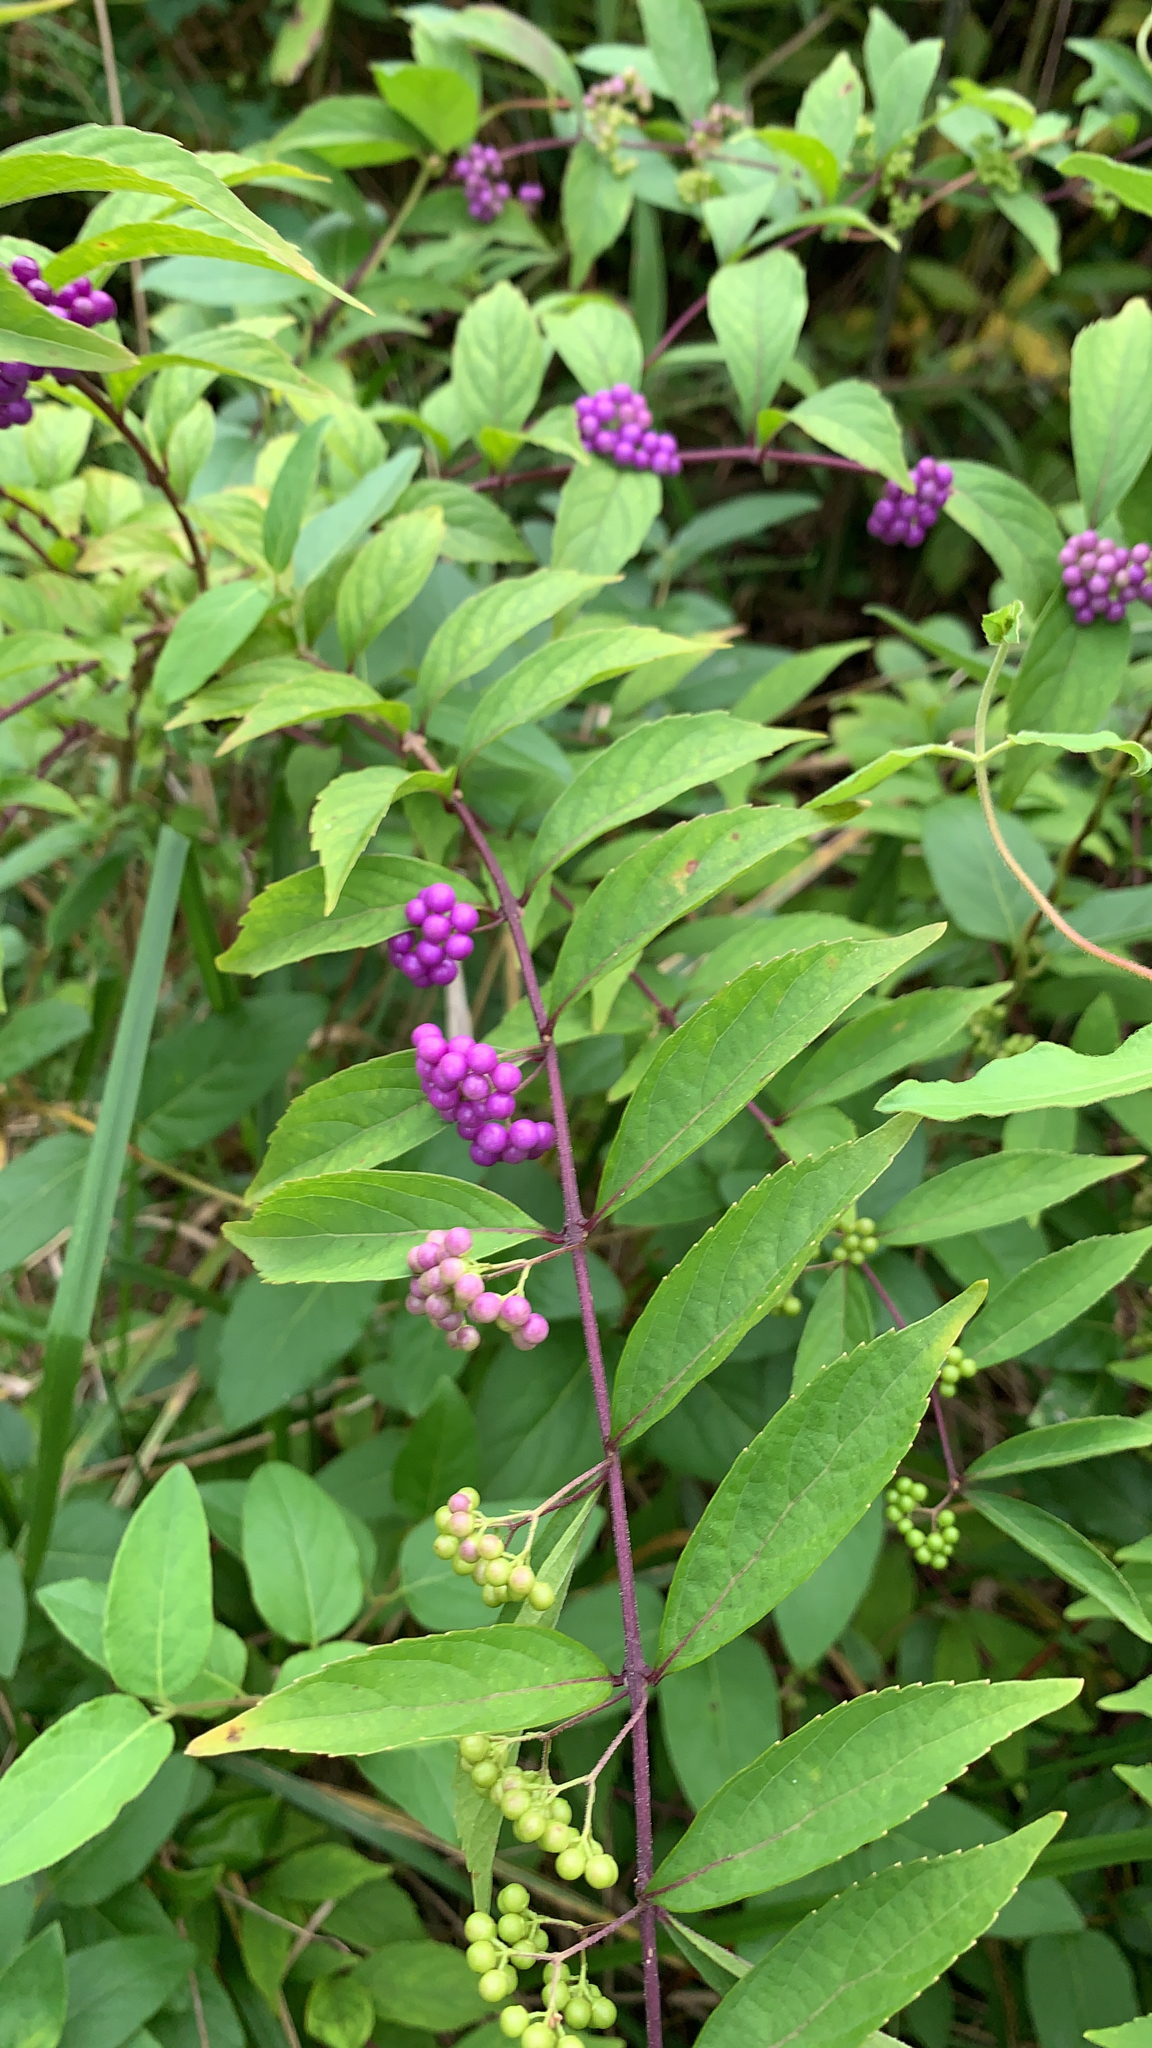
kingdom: Plantae
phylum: Tracheophyta
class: Magnoliopsida
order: Lamiales
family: Lamiaceae
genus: Callicarpa
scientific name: Callicarpa dichotoma
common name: Purple beauty-berry
